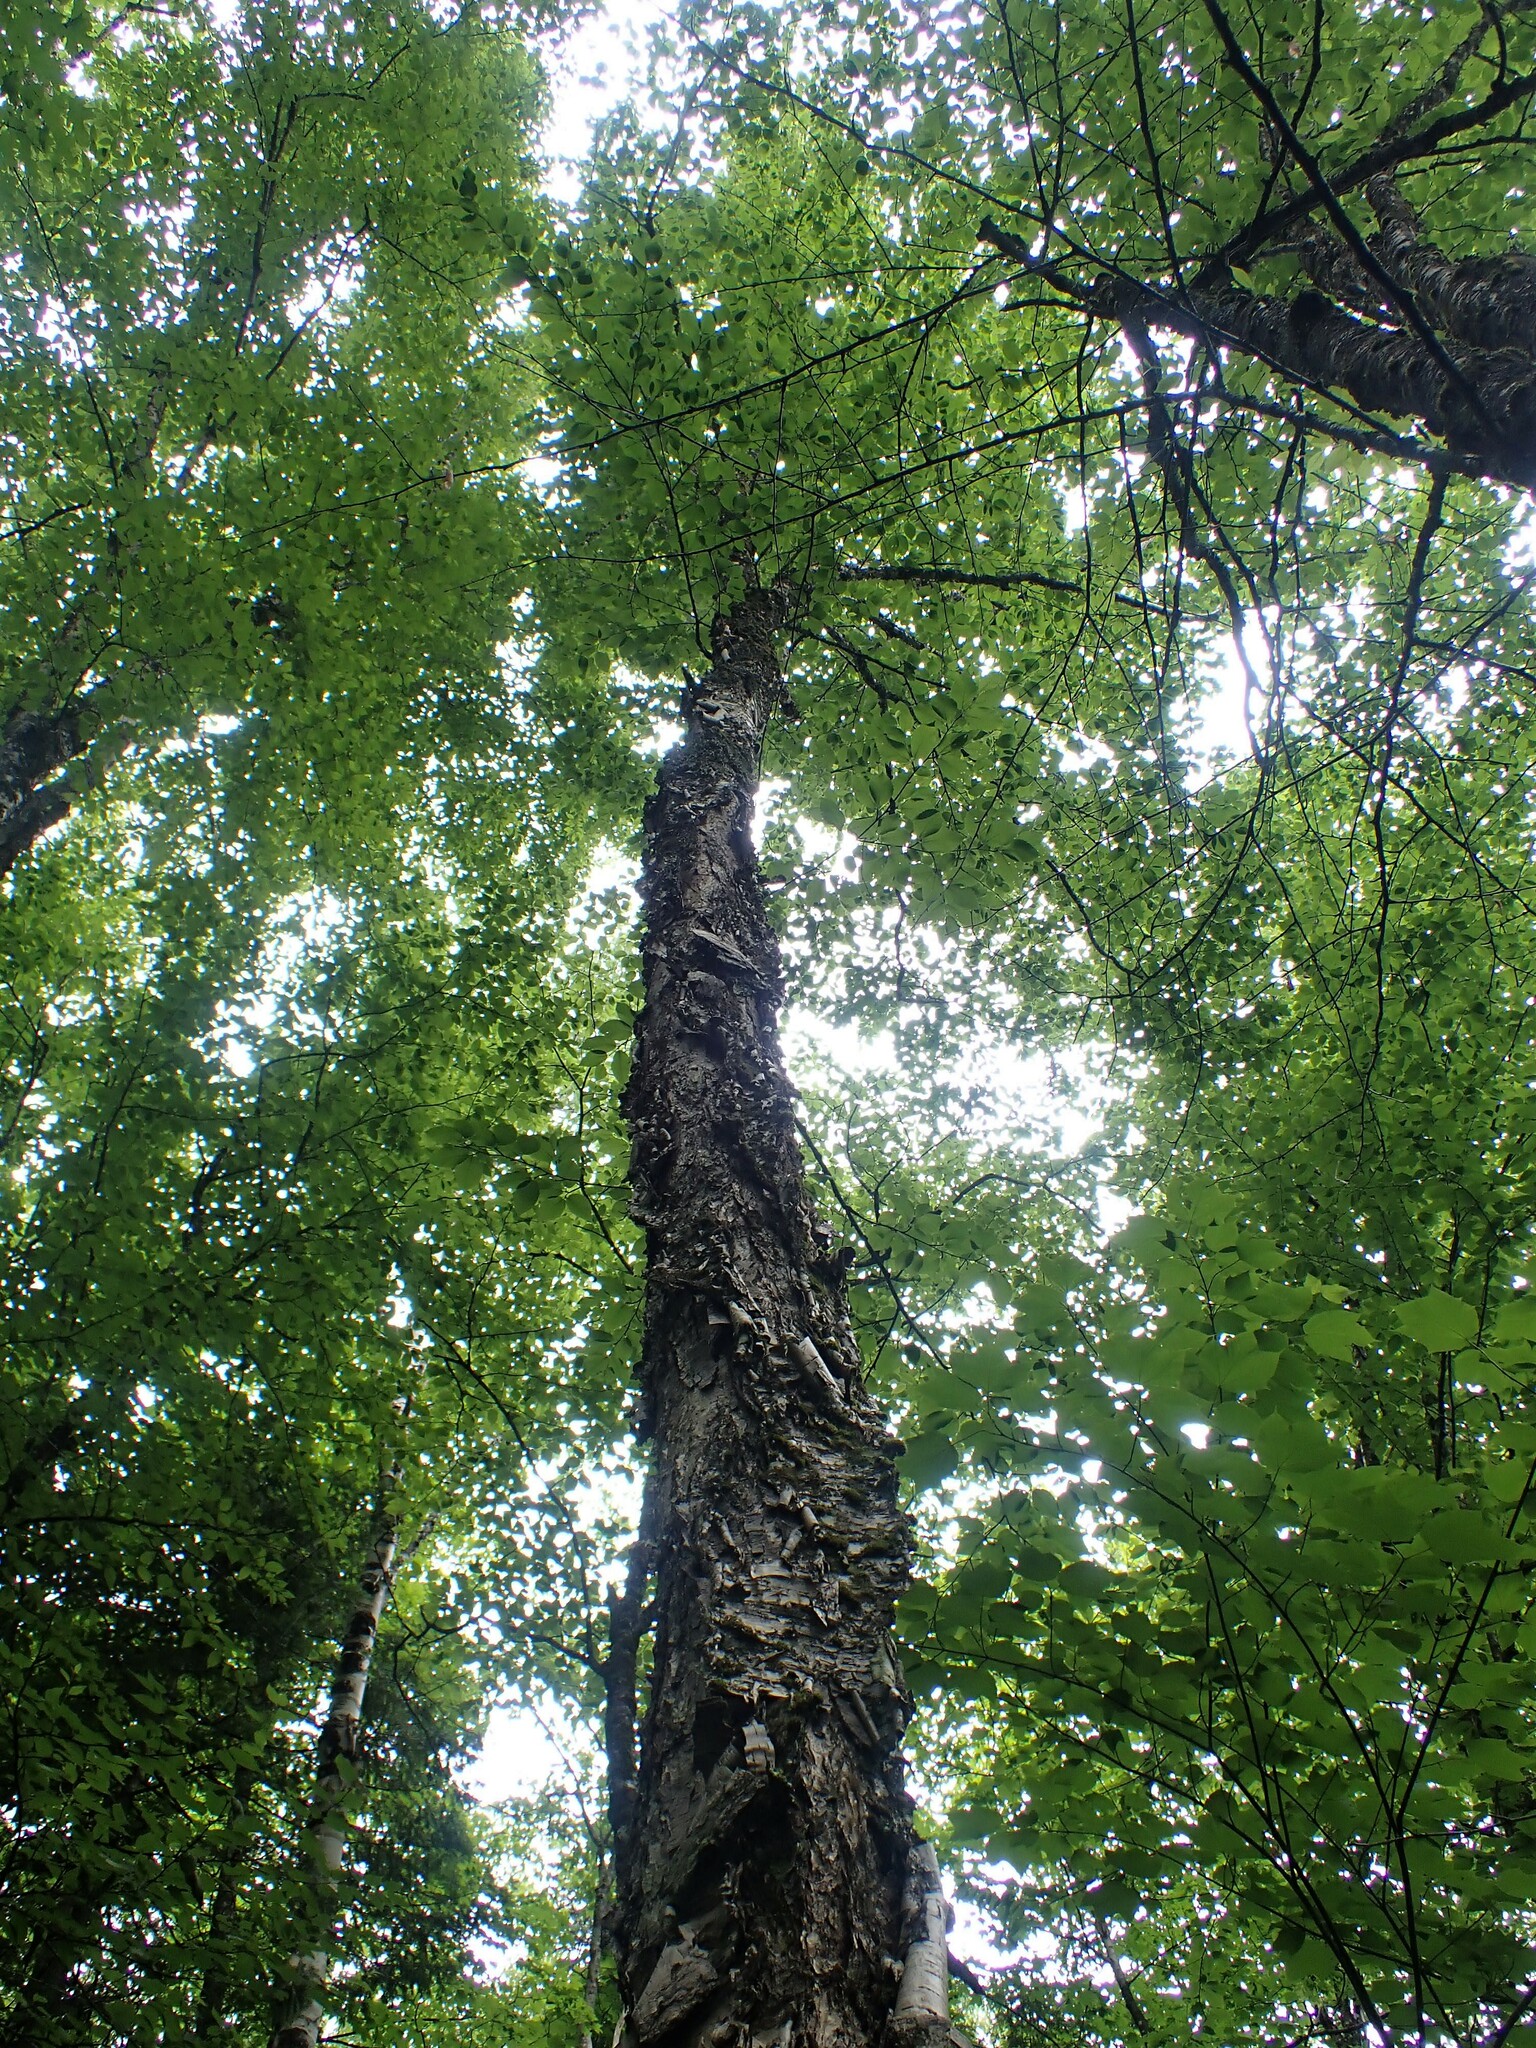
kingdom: Plantae
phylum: Tracheophyta
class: Magnoliopsida
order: Fagales
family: Betulaceae
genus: Betula
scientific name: Betula alleghaniensis
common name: Yellow birch
